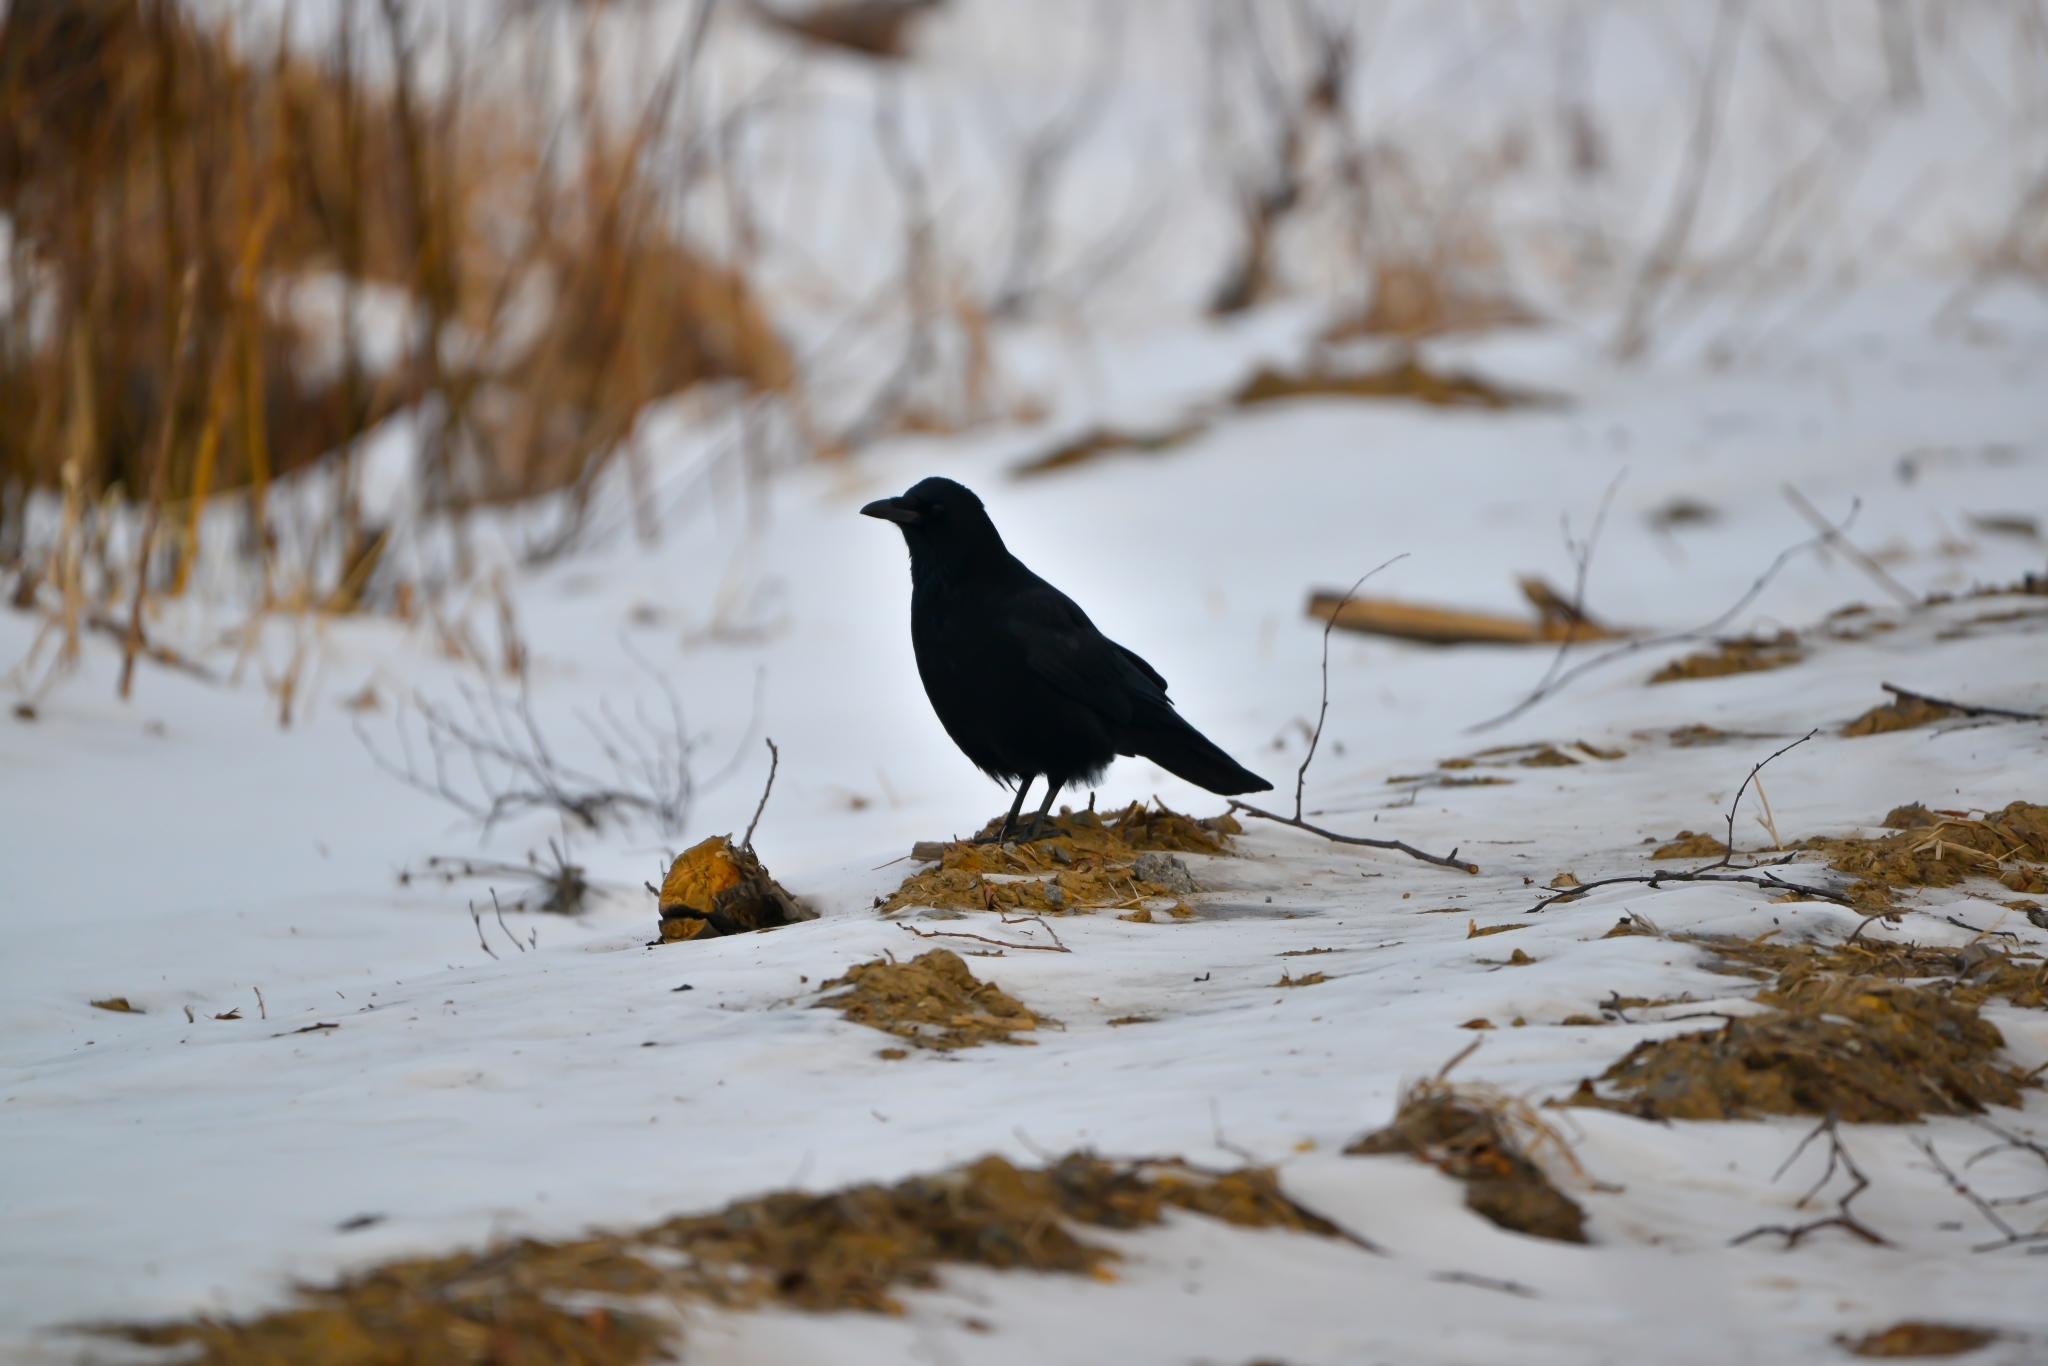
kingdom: Animalia
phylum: Chordata
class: Aves
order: Passeriformes
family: Corvidae
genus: Corvus
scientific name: Corvus corone
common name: Carrion crow
